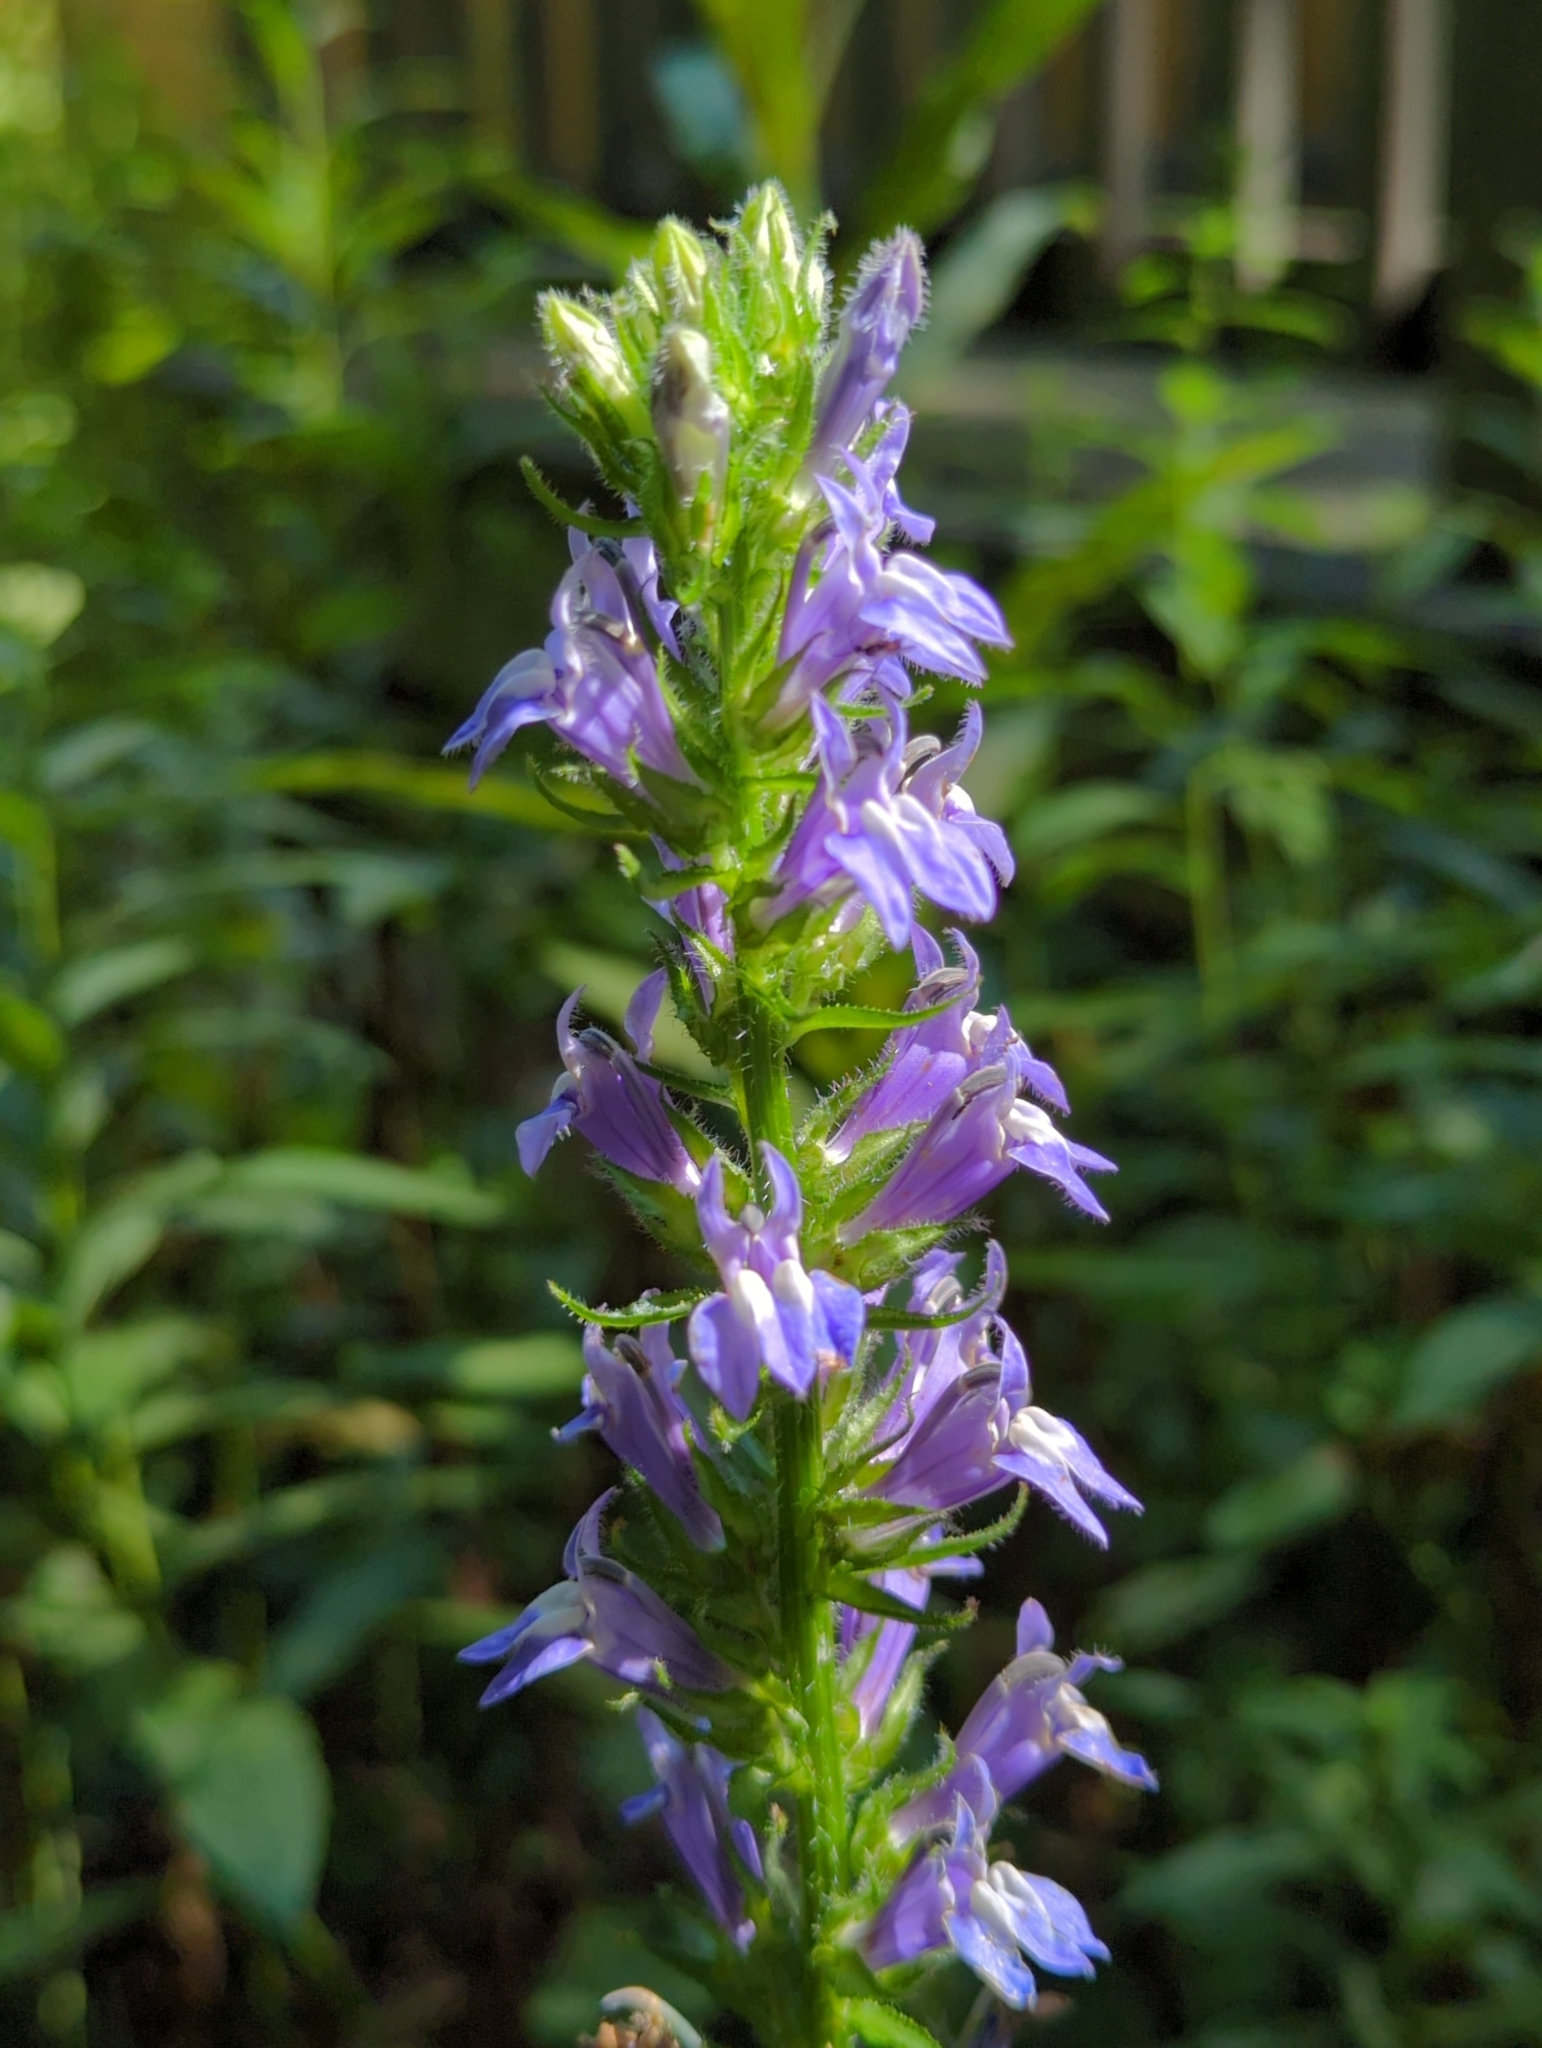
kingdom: Plantae
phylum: Tracheophyta
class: Magnoliopsida
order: Asterales
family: Campanulaceae
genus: Lobelia
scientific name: Lobelia siphilitica
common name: Great lobelia
